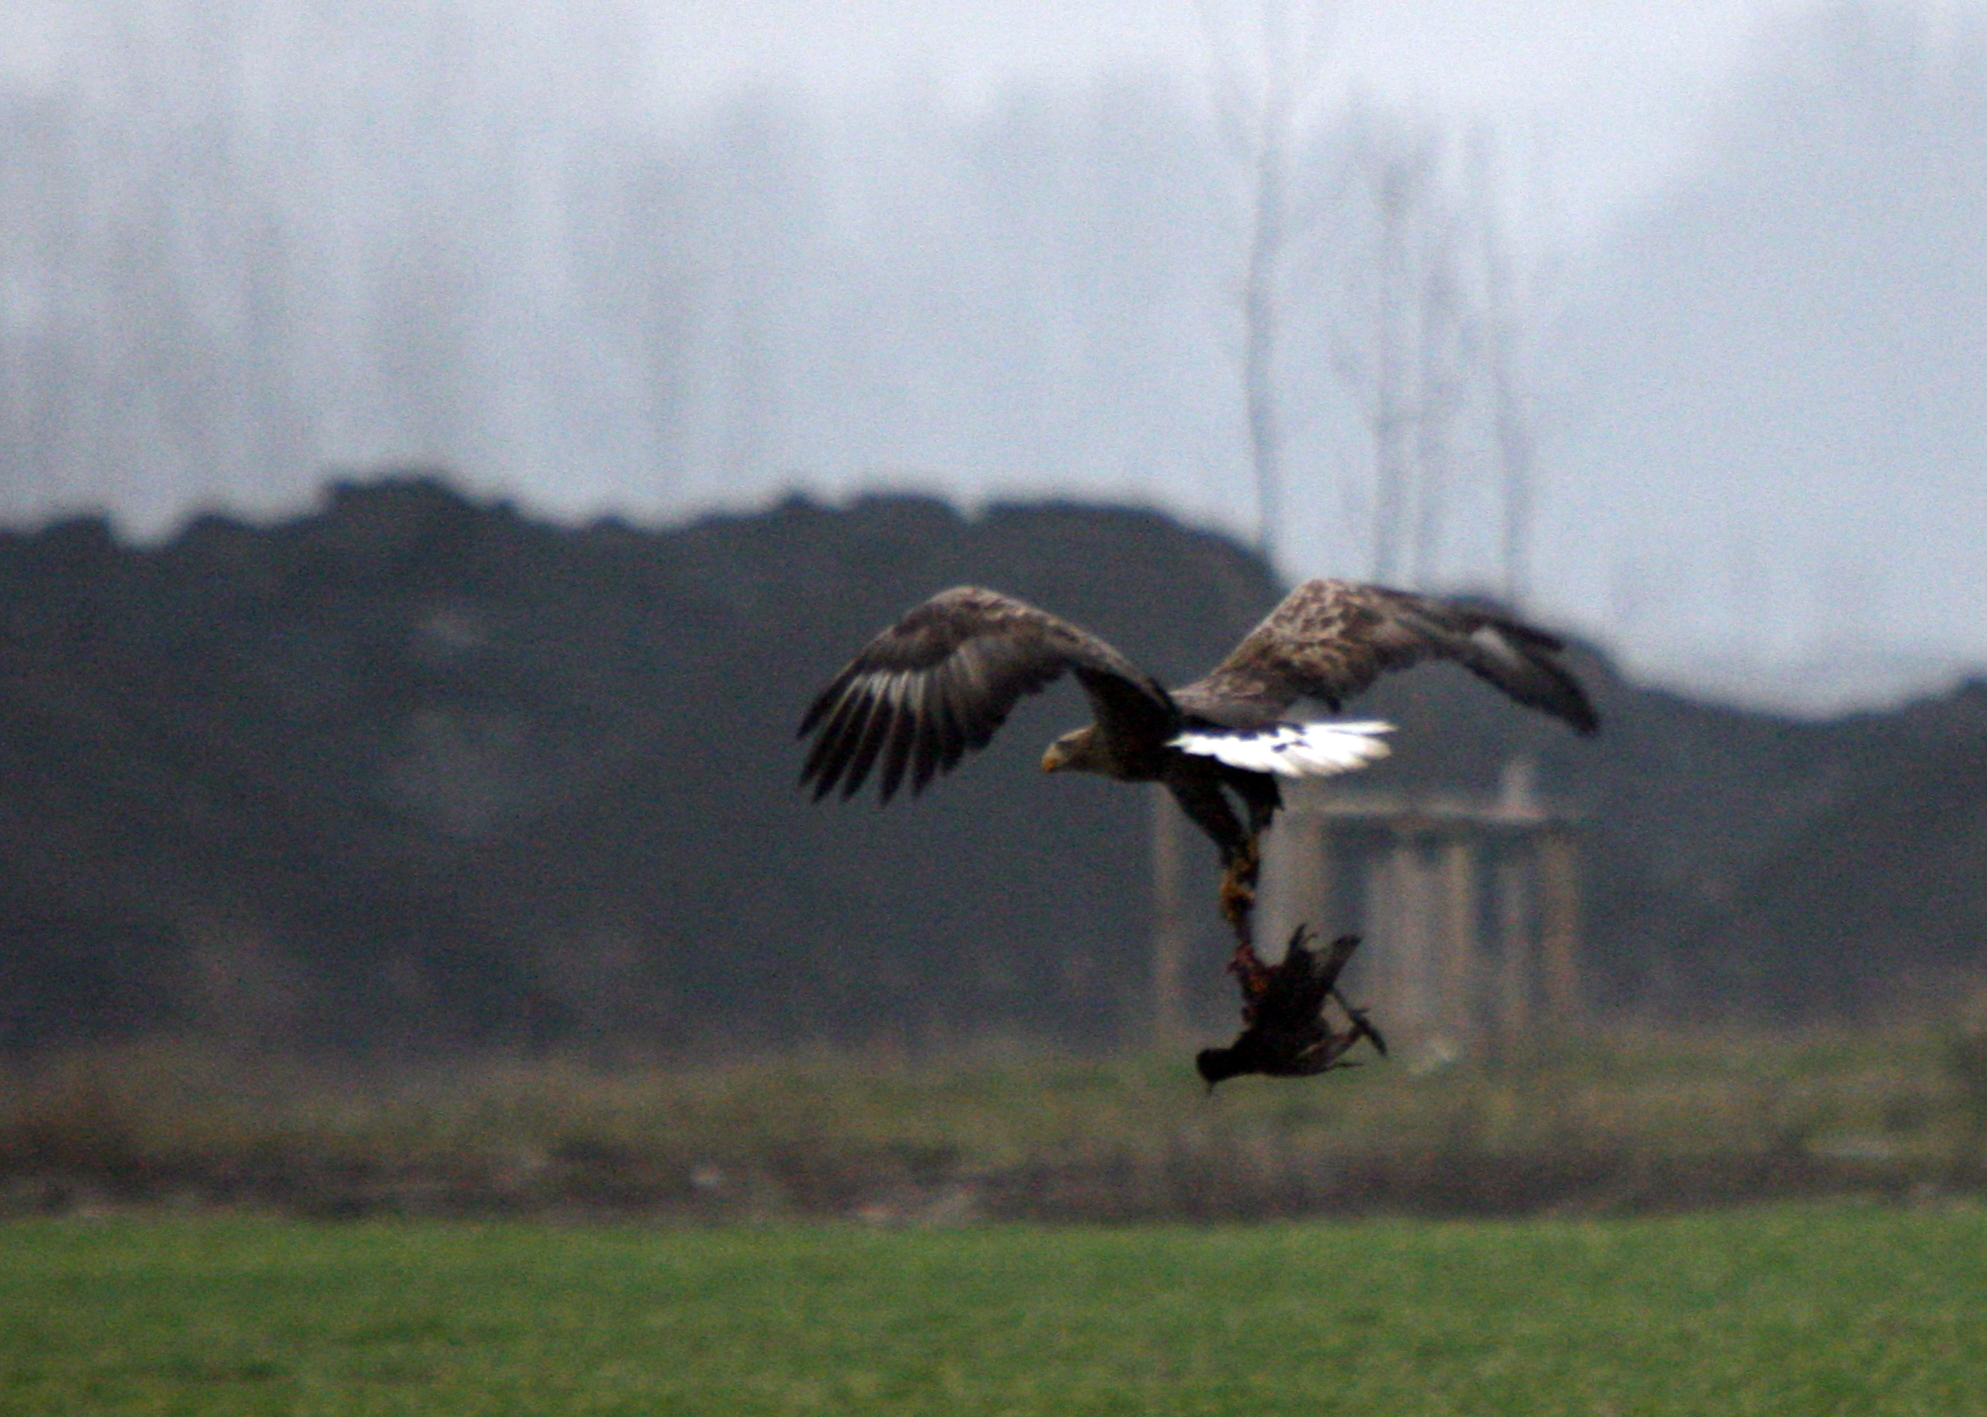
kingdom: Animalia
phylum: Chordata
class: Aves
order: Accipitriformes
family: Accipitridae
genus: Haliaeetus
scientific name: Haliaeetus albicilla
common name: White-tailed eagle
